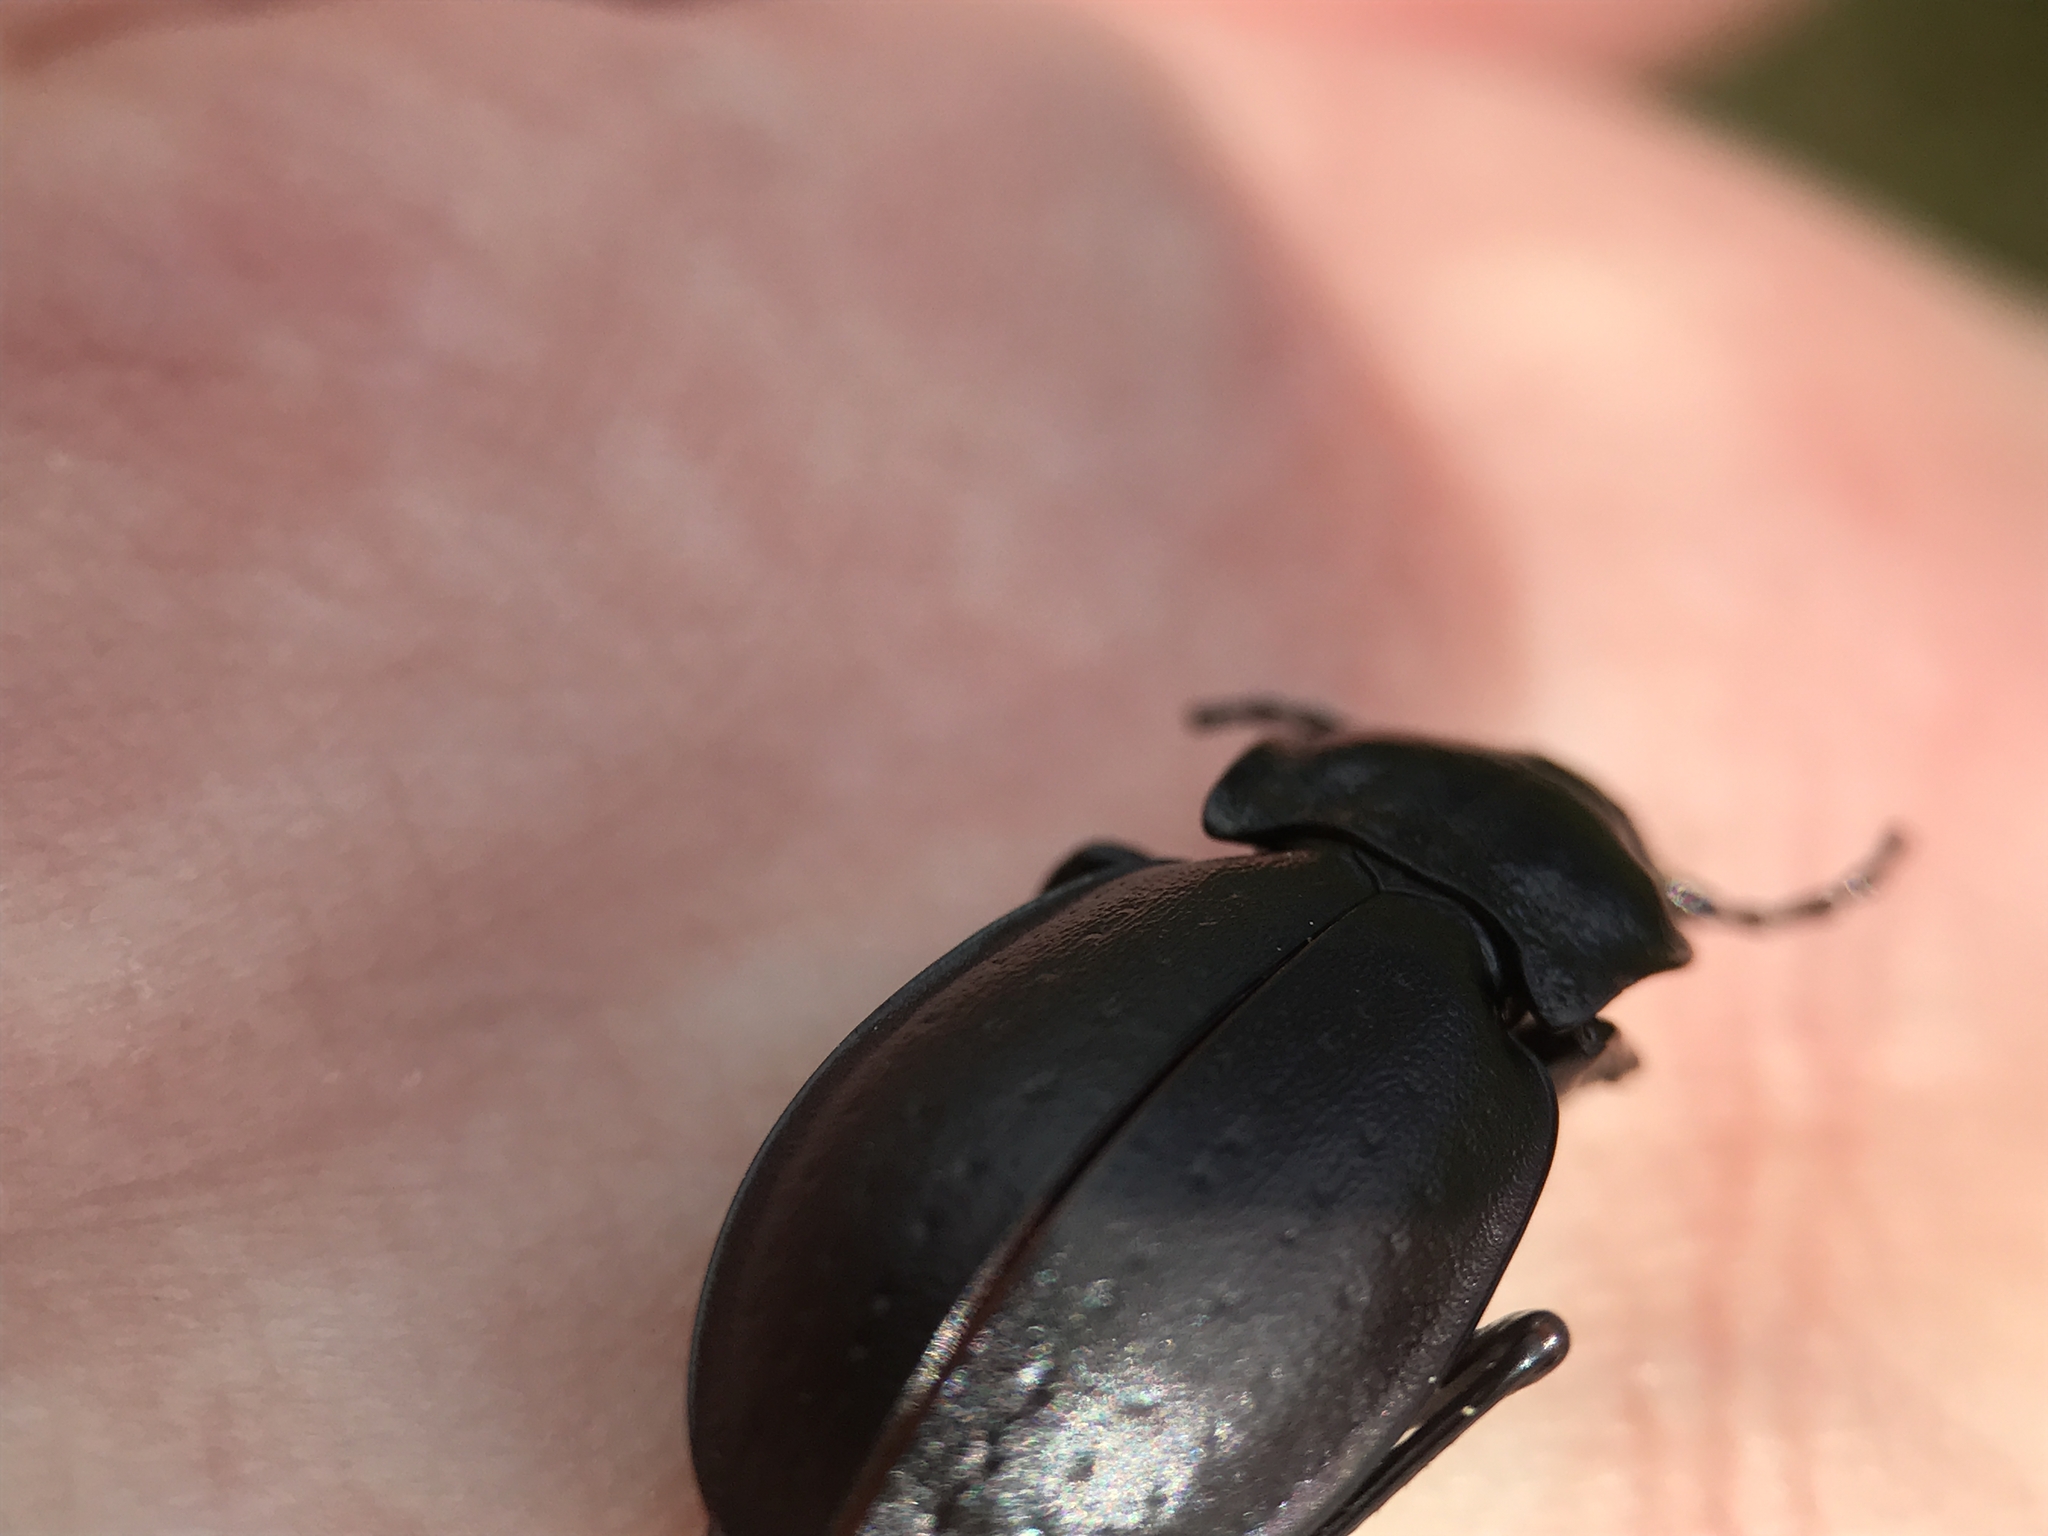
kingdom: Animalia
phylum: Arthropoda
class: Insecta
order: Coleoptera
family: Carabidae
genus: Carabus
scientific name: Carabus nemoralis
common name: European ground beetle
